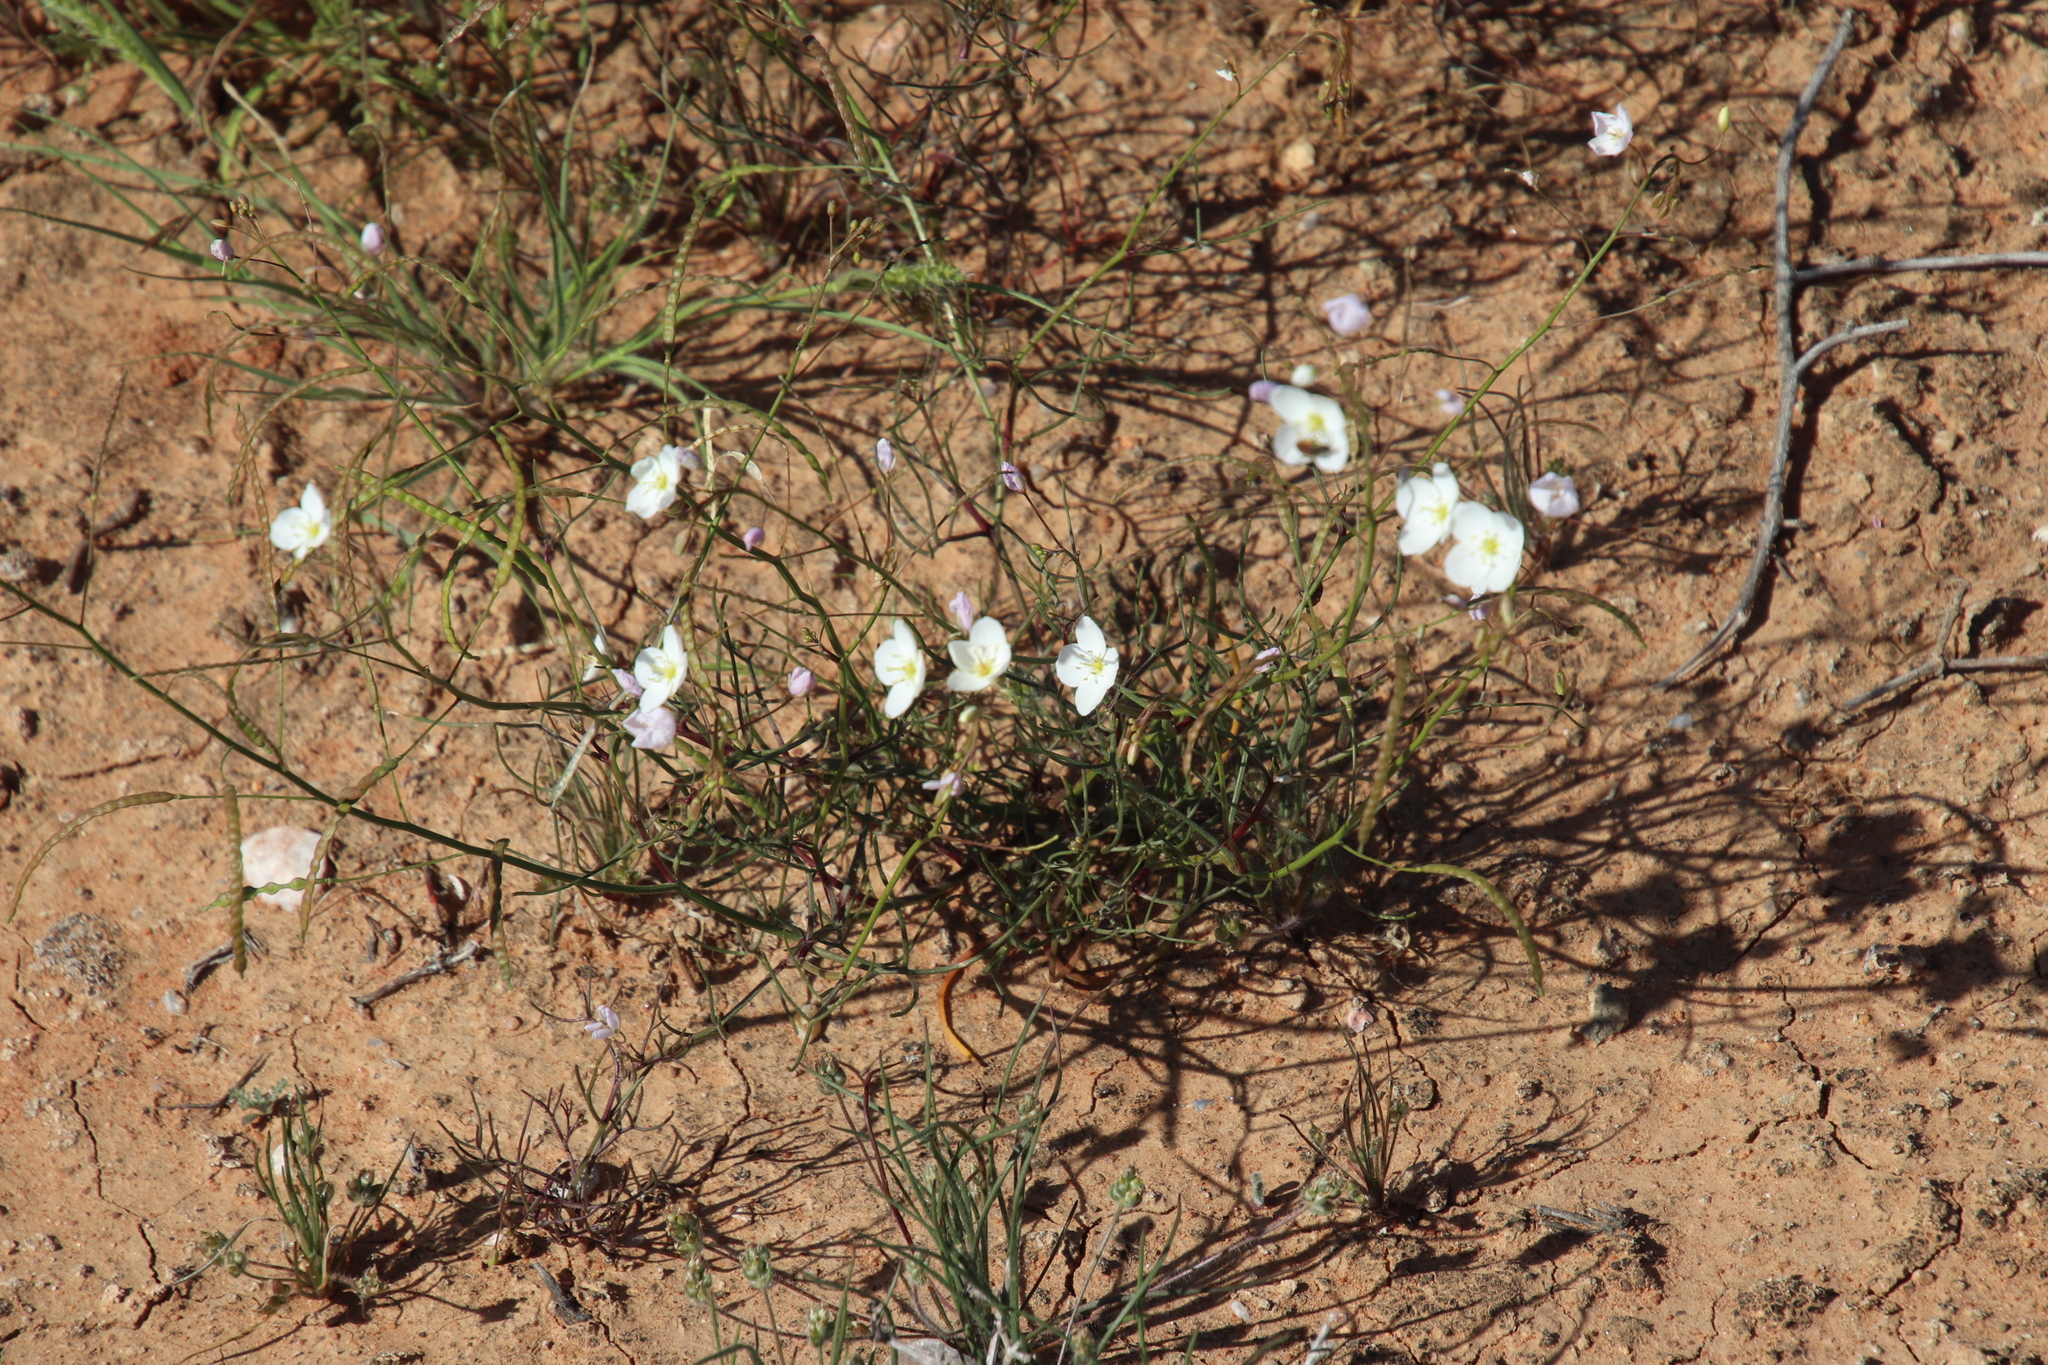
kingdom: Plantae
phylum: Tracheophyta
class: Magnoliopsida
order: Brassicales
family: Brassicaceae
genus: Heliophila
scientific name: Heliophila variabilis
